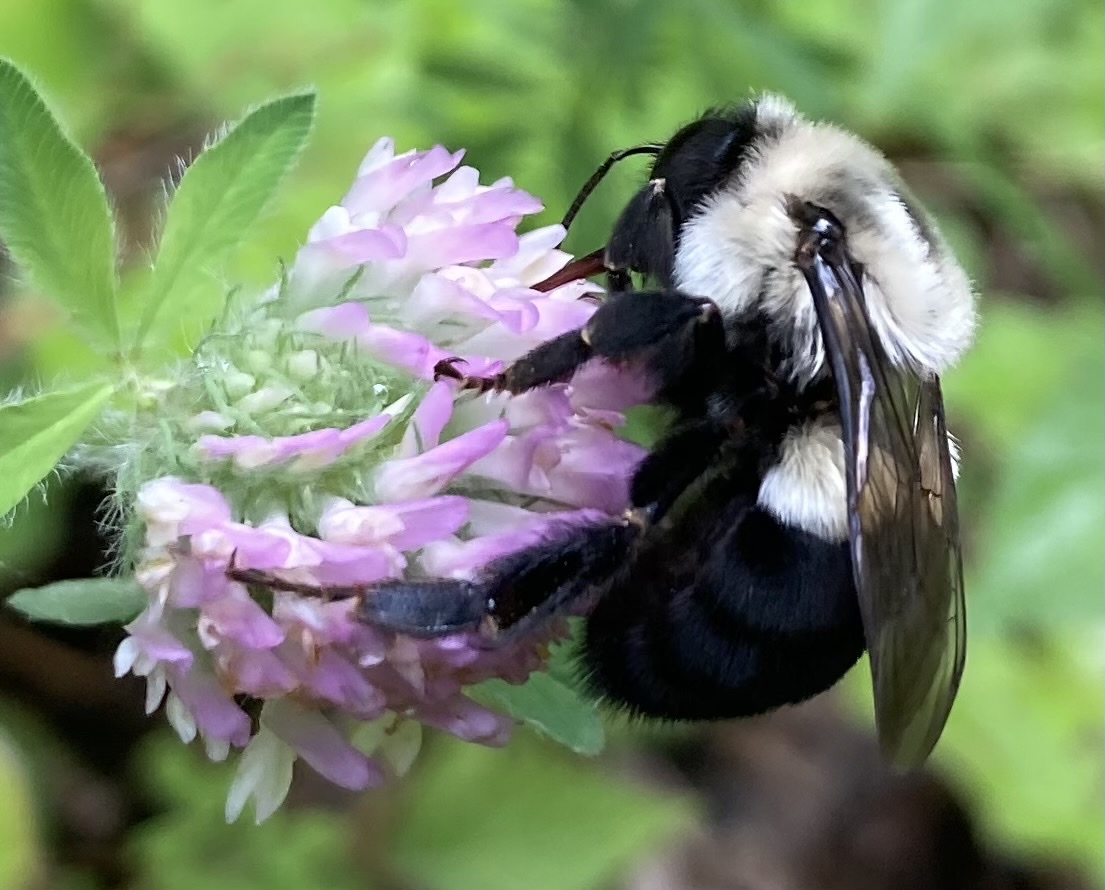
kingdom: Animalia
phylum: Arthropoda
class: Insecta
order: Hymenoptera
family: Apidae
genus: Bombus
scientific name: Bombus impatiens
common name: Common eastern bumble bee
